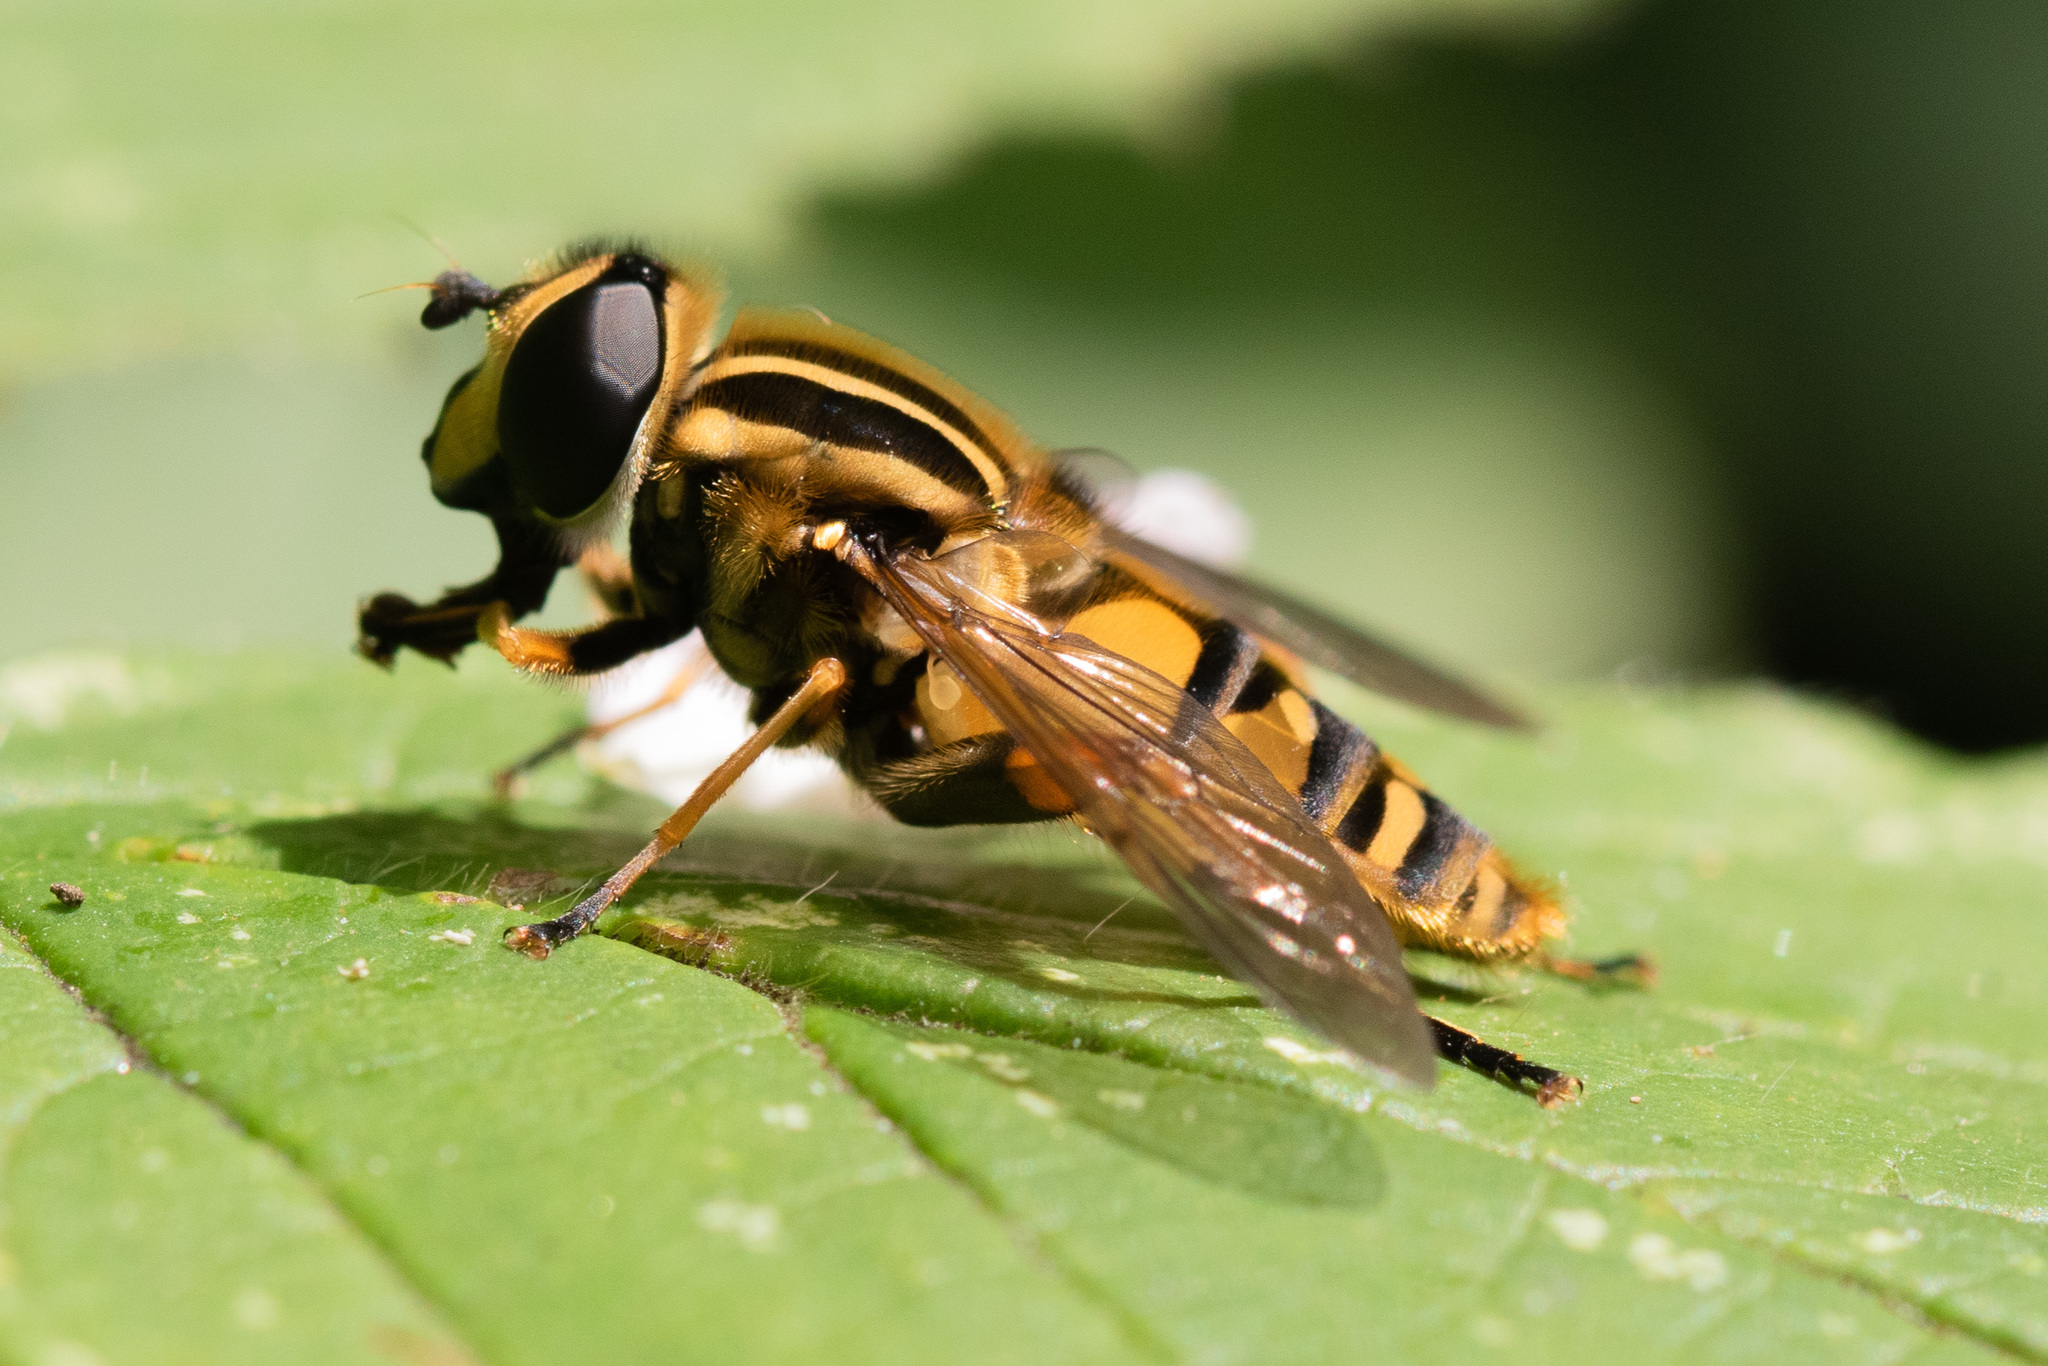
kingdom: Animalia
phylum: Arthropoda
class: Insecta
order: Diptera
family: Syrphidae
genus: Helophilus
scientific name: Helophilus pendulus
